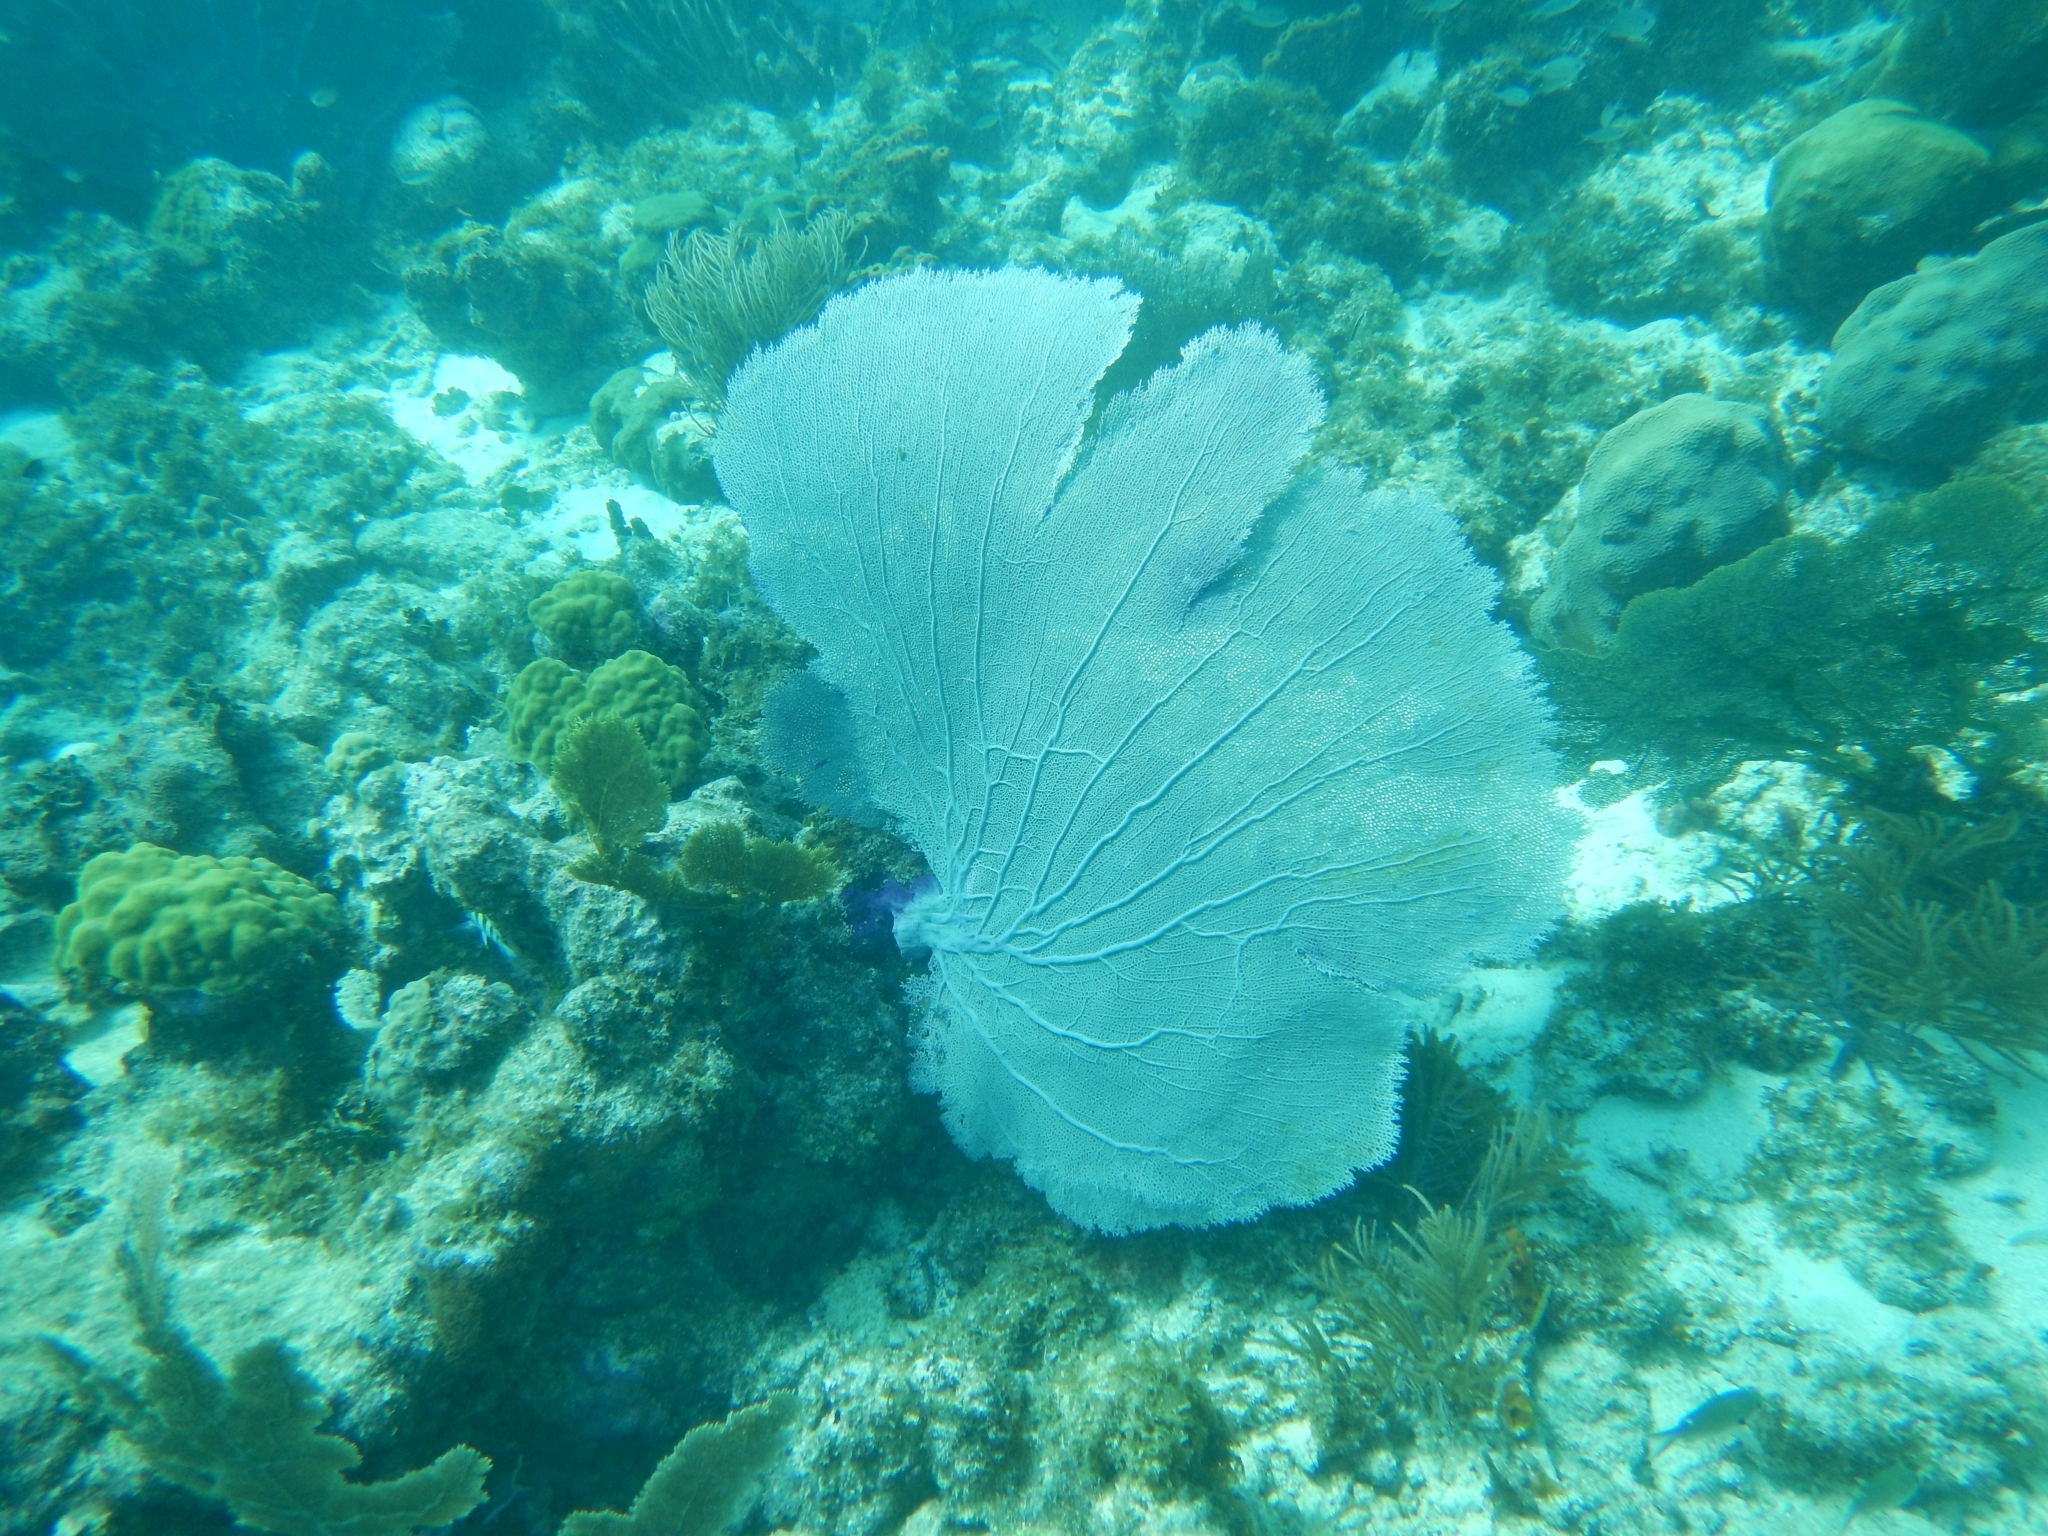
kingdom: Animalia
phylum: Cnidaria
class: Anthozoa
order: Malacalcyonacea
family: Gorgoniidae
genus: Gorgonia
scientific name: Gorgonia ventalina
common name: Common sea fan
